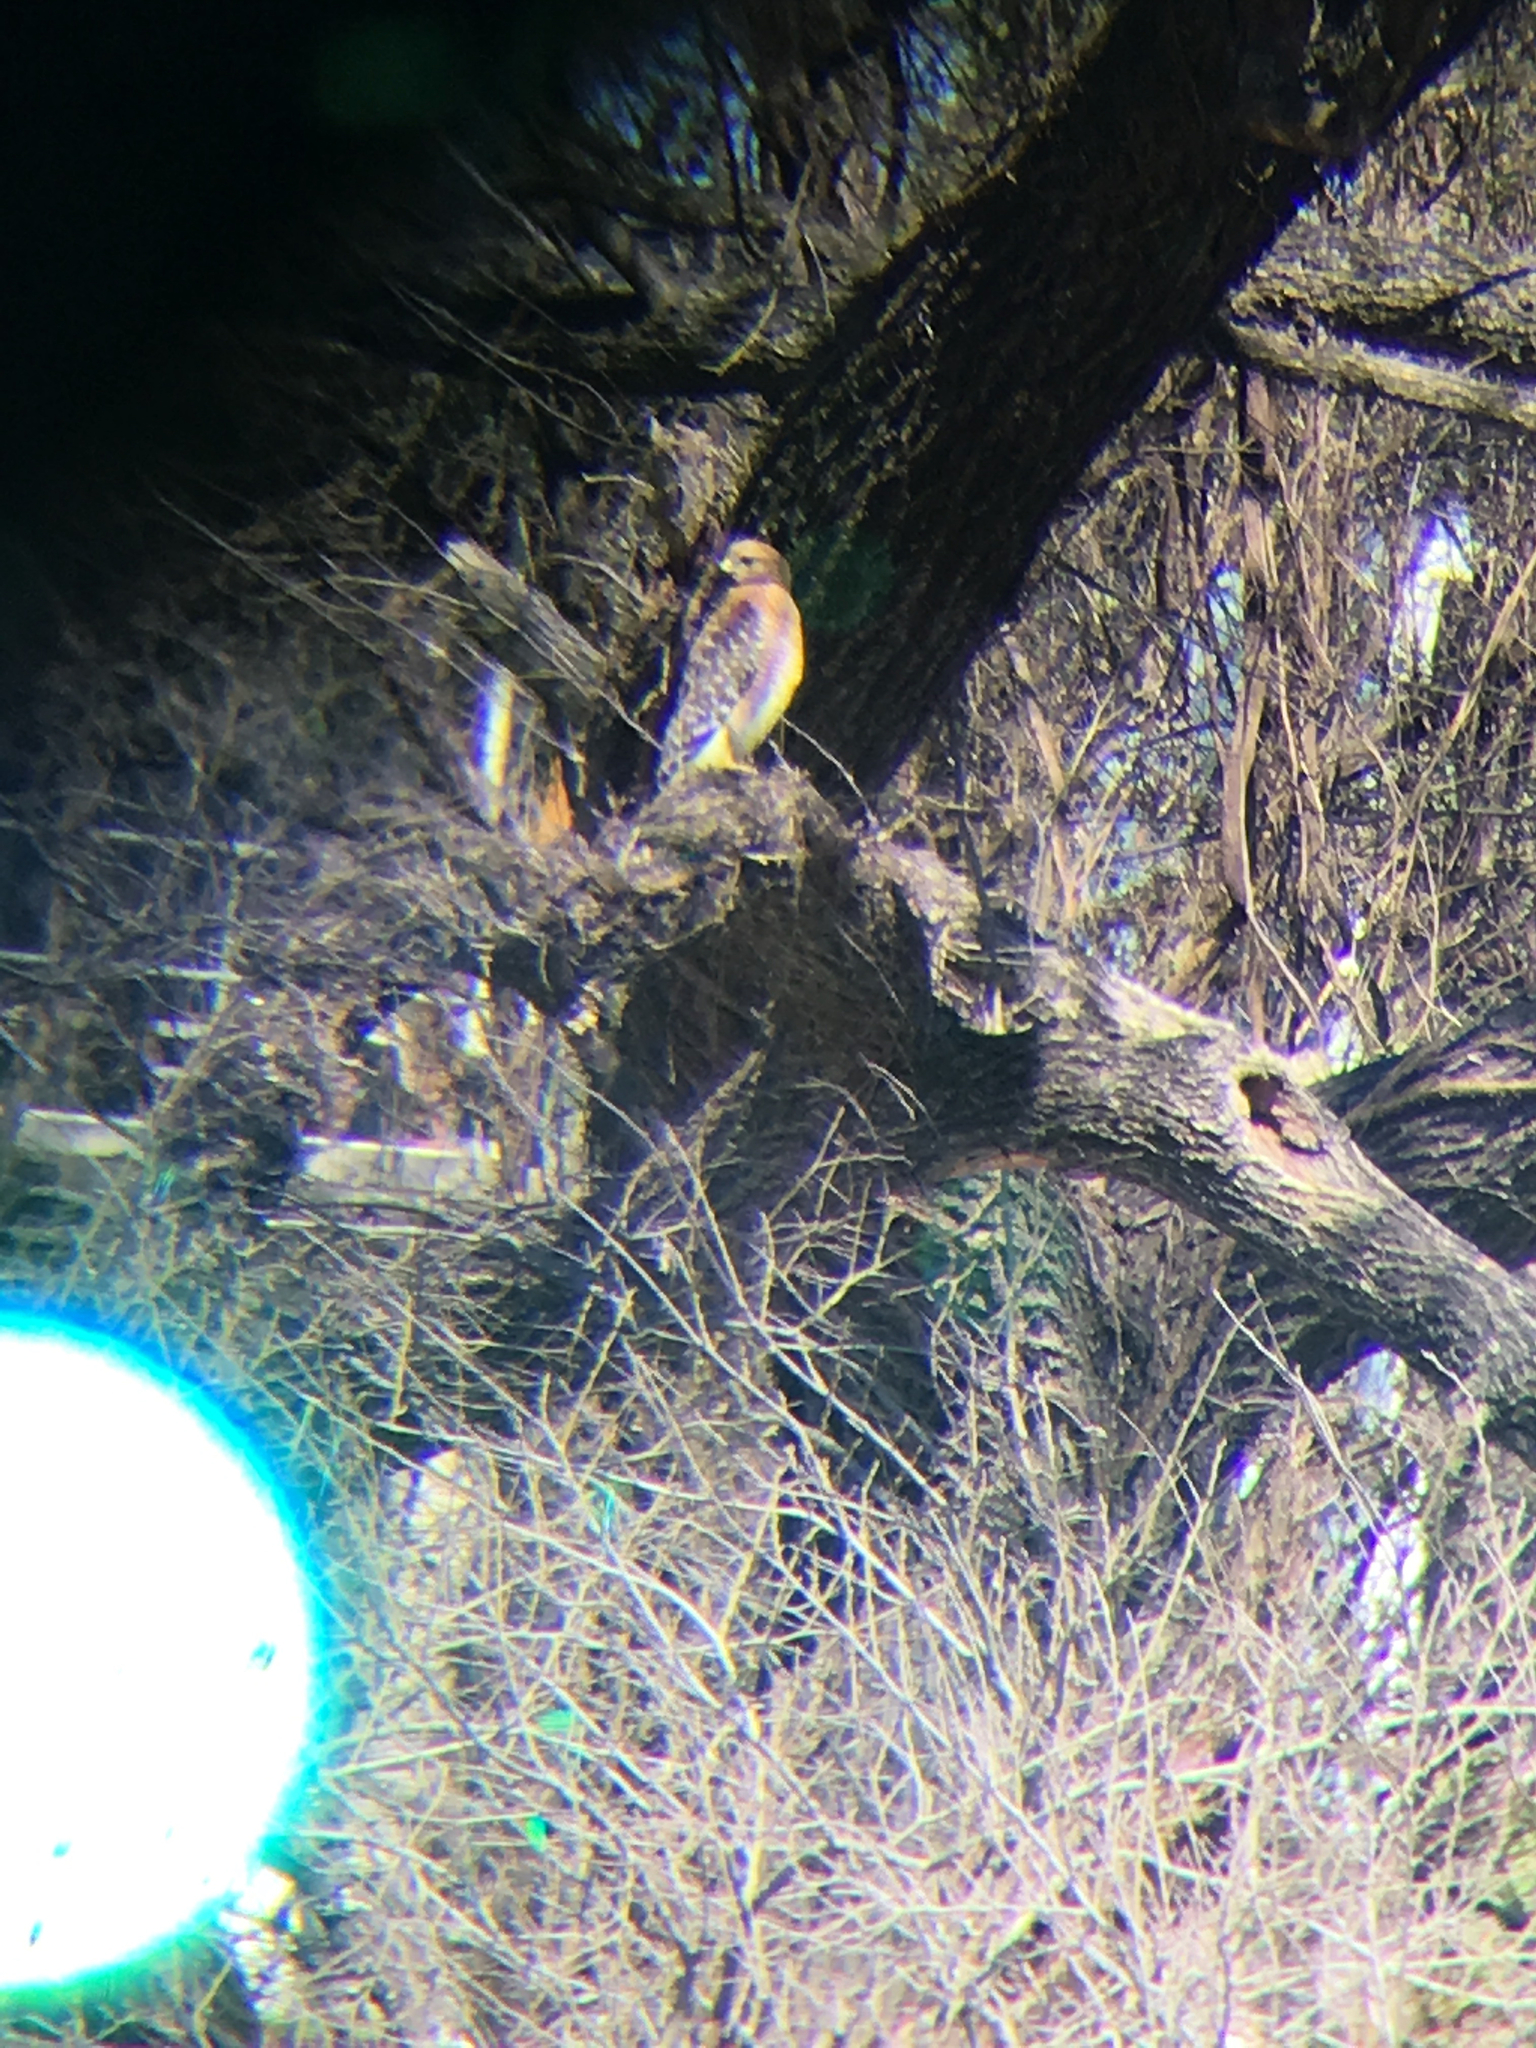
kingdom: Animalia
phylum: Chordata
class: Aves
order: Accipitriformes
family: Accipitridae
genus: Buteo
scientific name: Buteo lineatus
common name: Red-shouldered hawk
